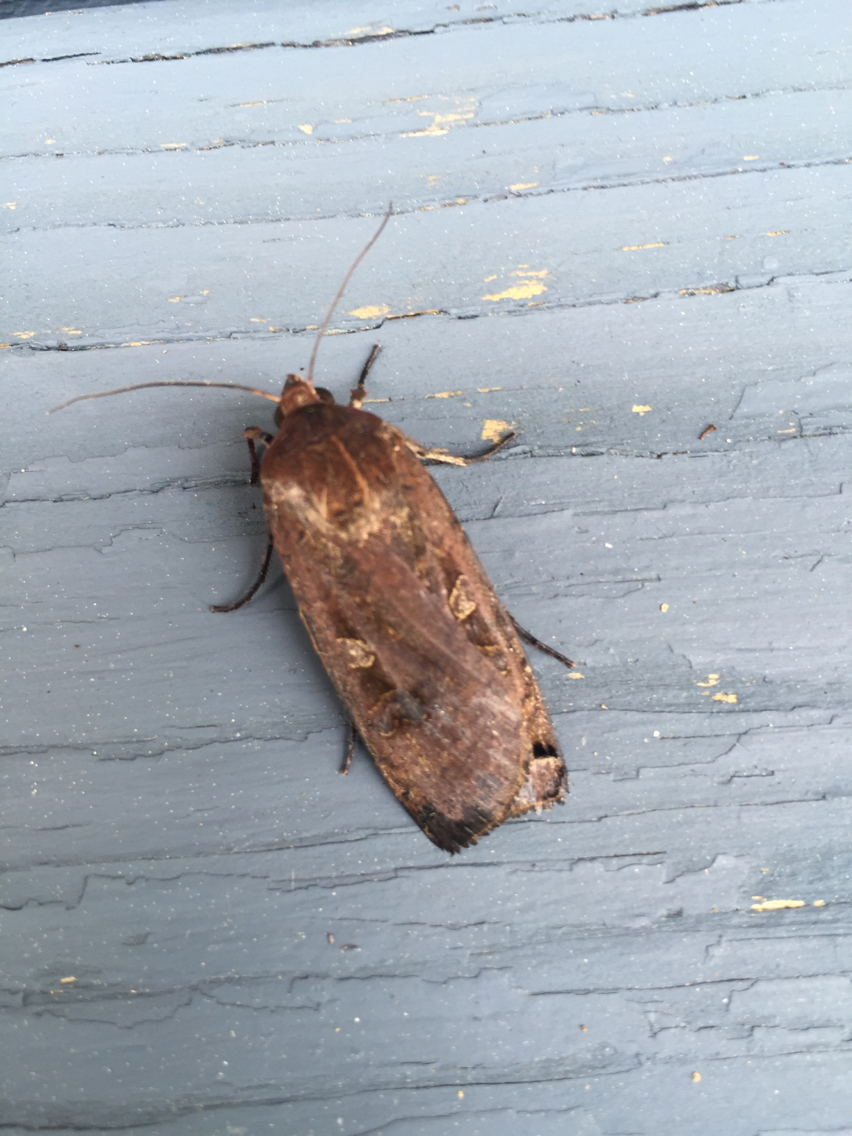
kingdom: Animalia
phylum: Arthropoda
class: Insecta
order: Lepidoptera
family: Noctuidae
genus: Noctua
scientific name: Noctua pronuba
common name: Large yellow underwing
